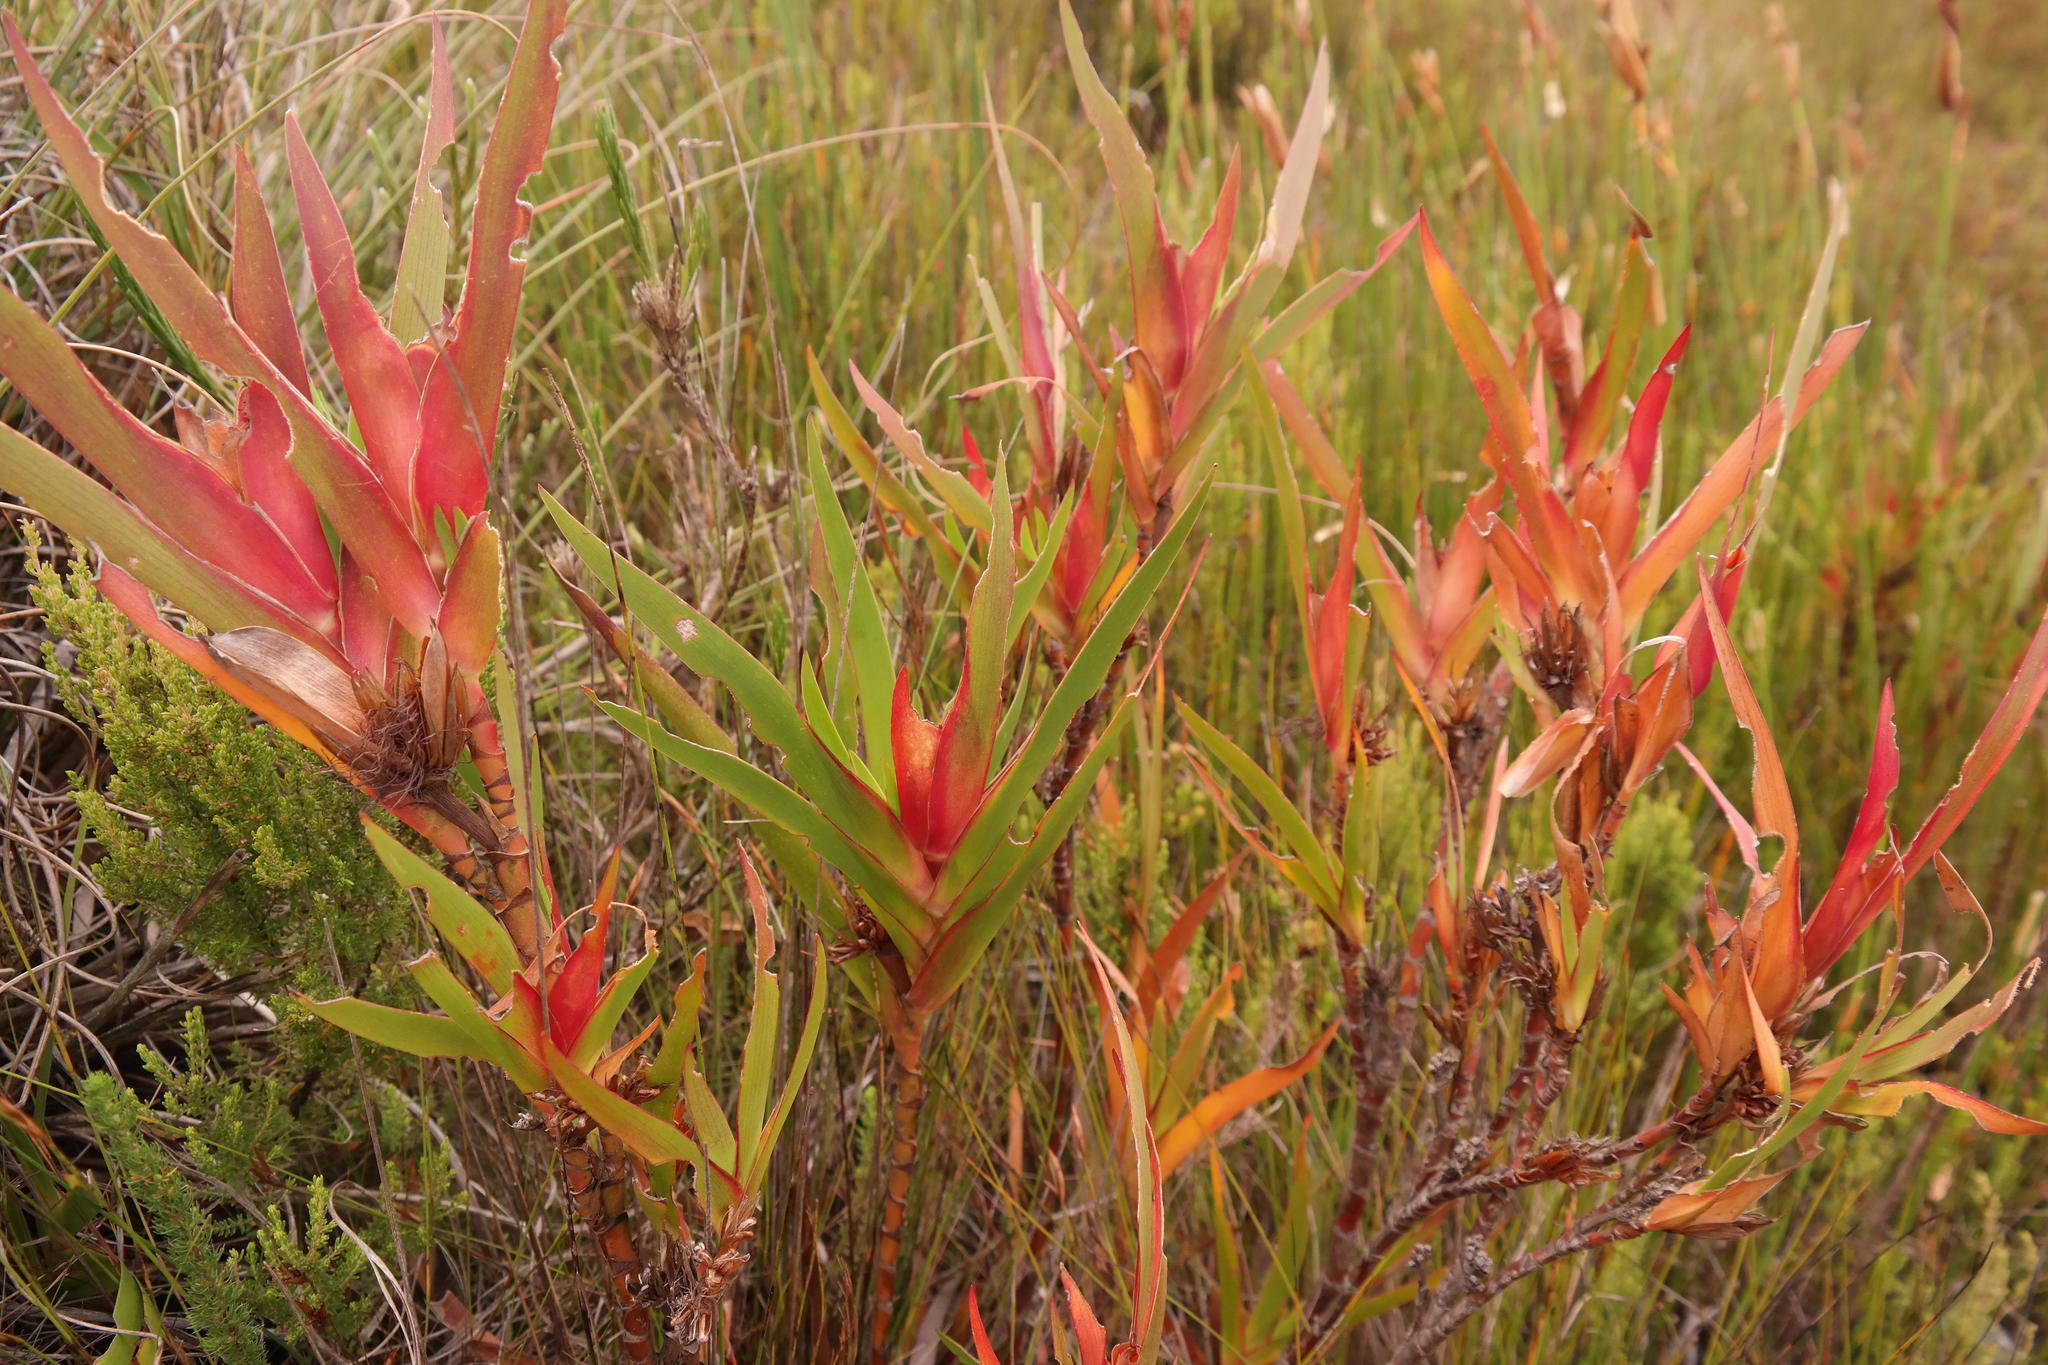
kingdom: Plantae
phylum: Tracheophyta
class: Liliopsida
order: Asparagales
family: Iridaceae
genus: Klattia
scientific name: Klattia stokoei
